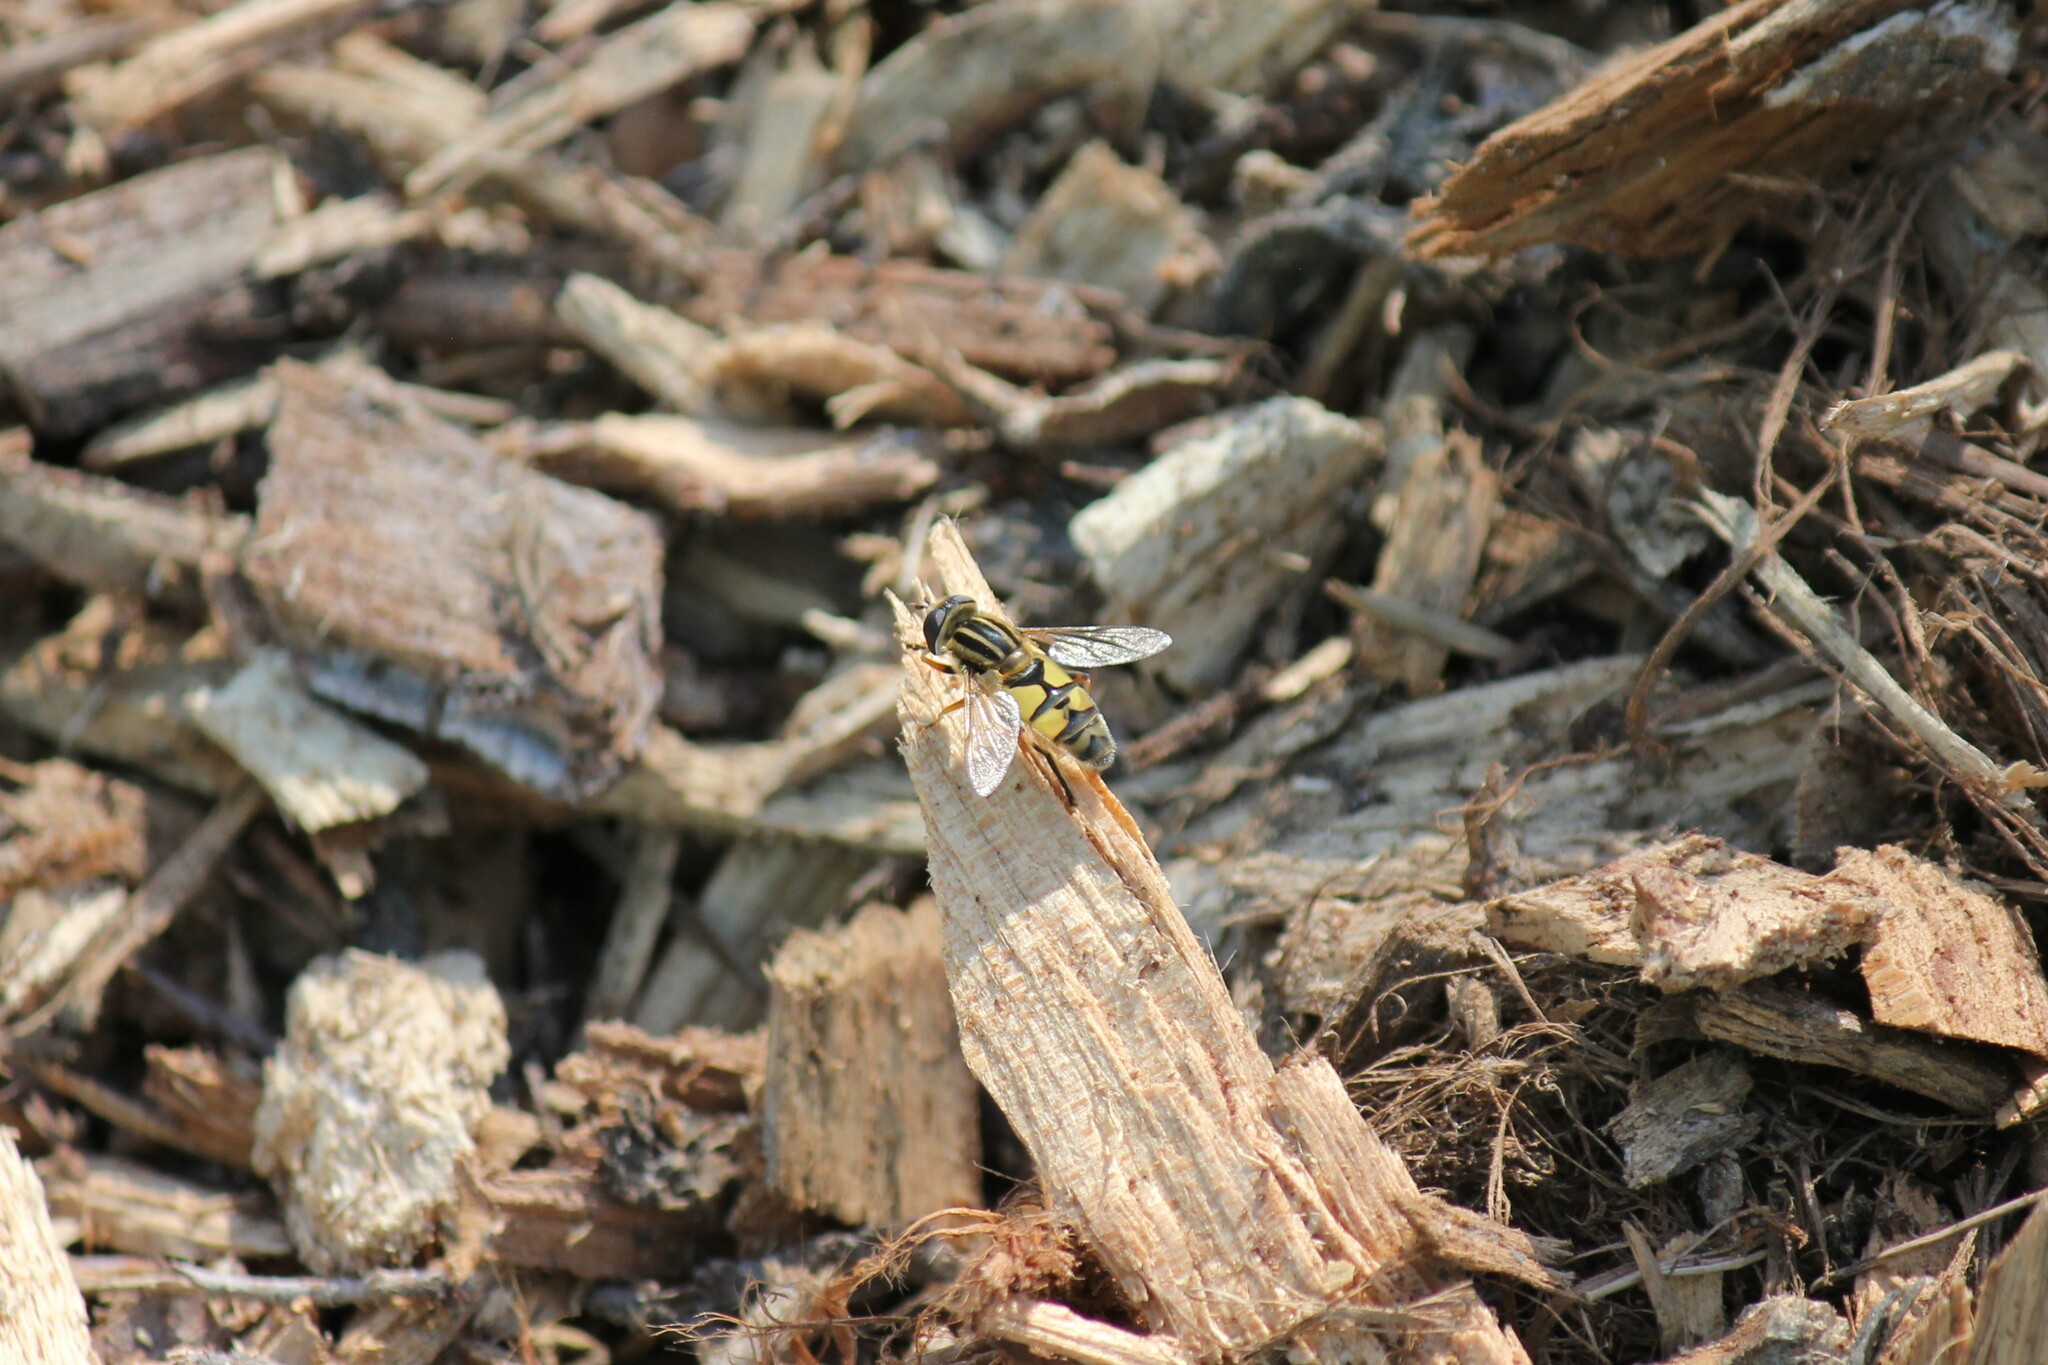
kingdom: Animalia
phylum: Arthropoda
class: Insecta
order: Diptera
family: Syrphidae
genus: Helophilus
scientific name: Helophilus latifrons
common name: Broad-headed marsh fly
